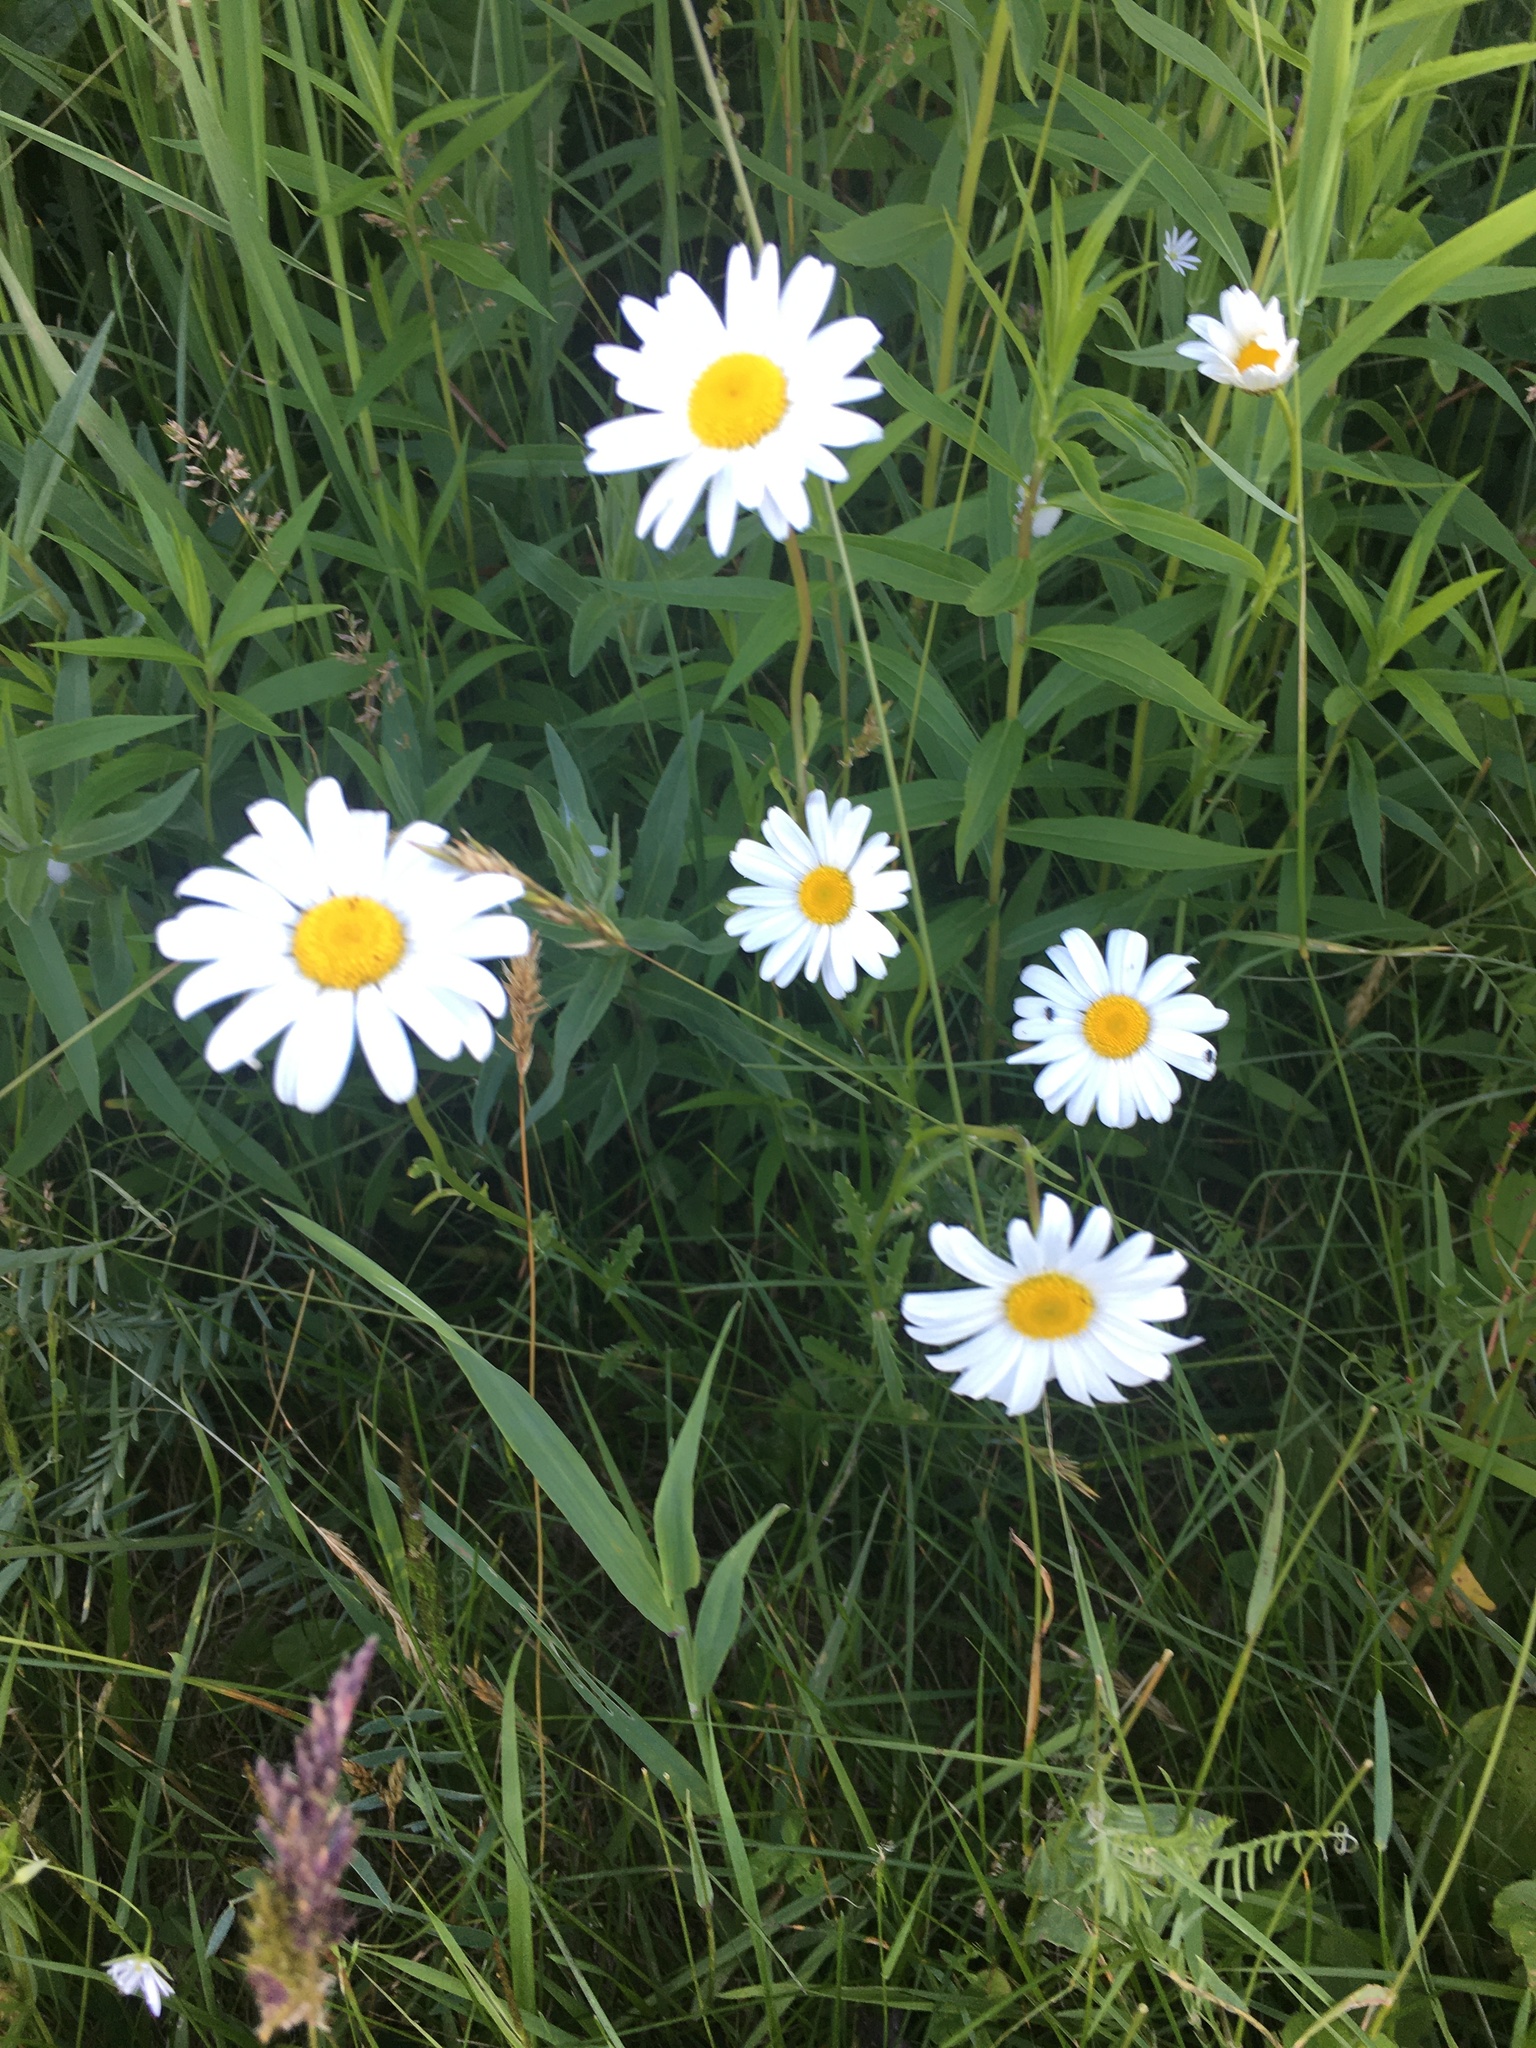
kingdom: Plantae
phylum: Tracheophyta
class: Magnoliopsida
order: Asterales
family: Asteraceae
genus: Leucanthemum
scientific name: Leucanthemum vulgare
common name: Oxeye daisy
